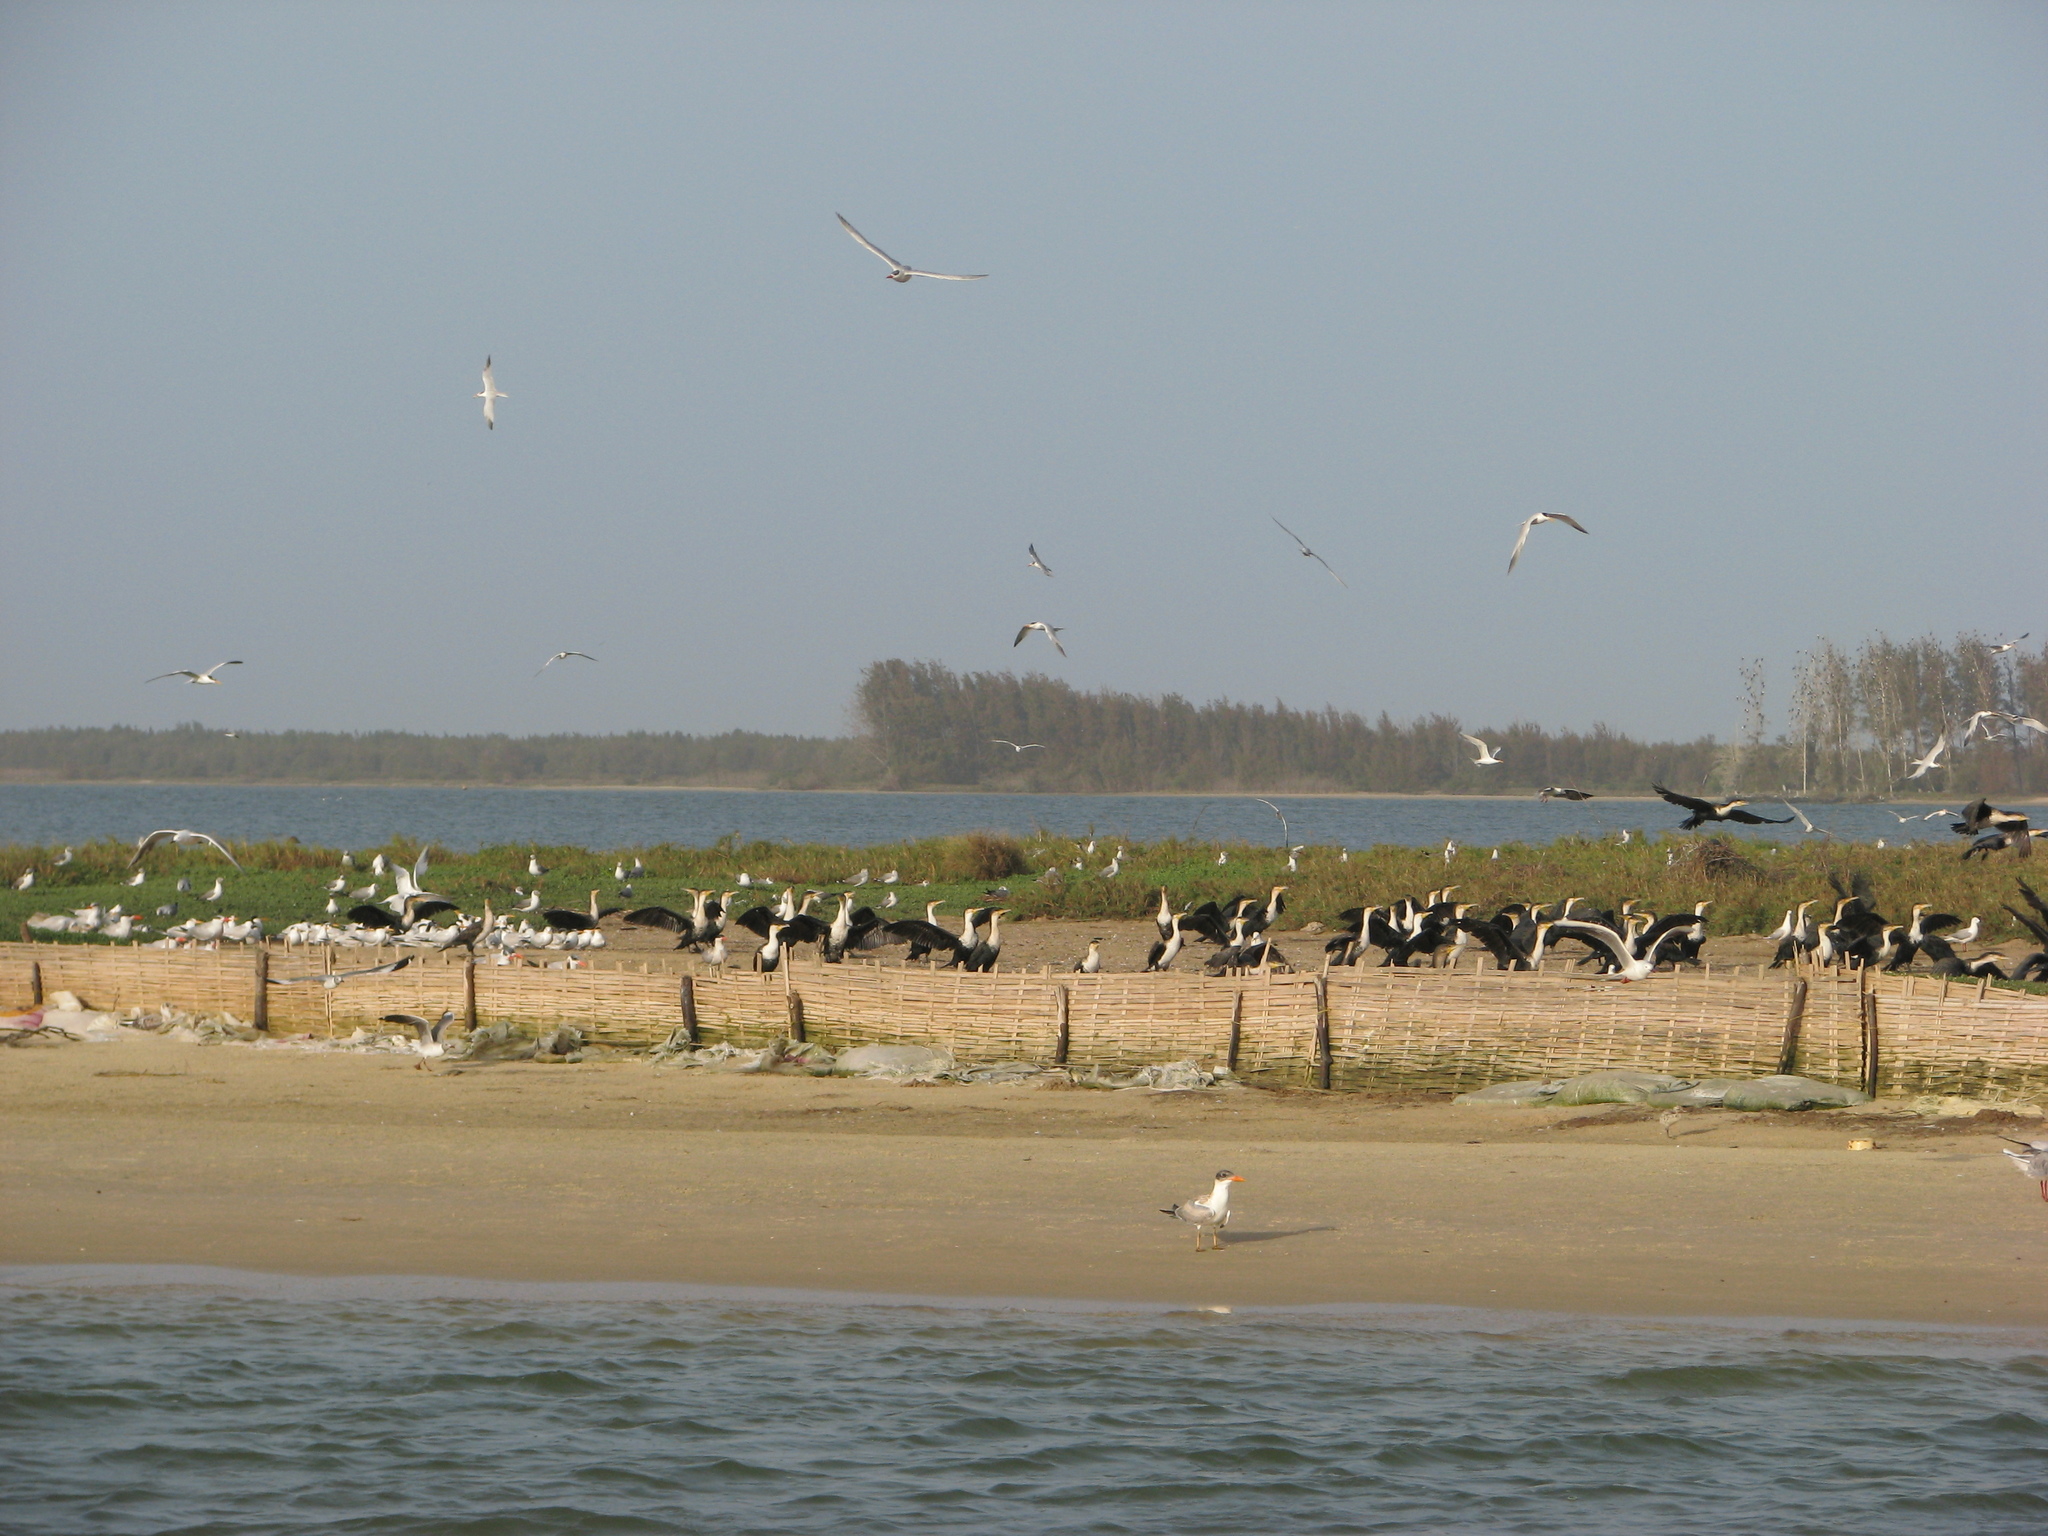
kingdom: Animalia
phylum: Chordata
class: Aves
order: Suliformes
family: Phalacrocoracidae
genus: Phalacrocorax
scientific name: Phalacrocorax carbo
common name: Great cormorant
